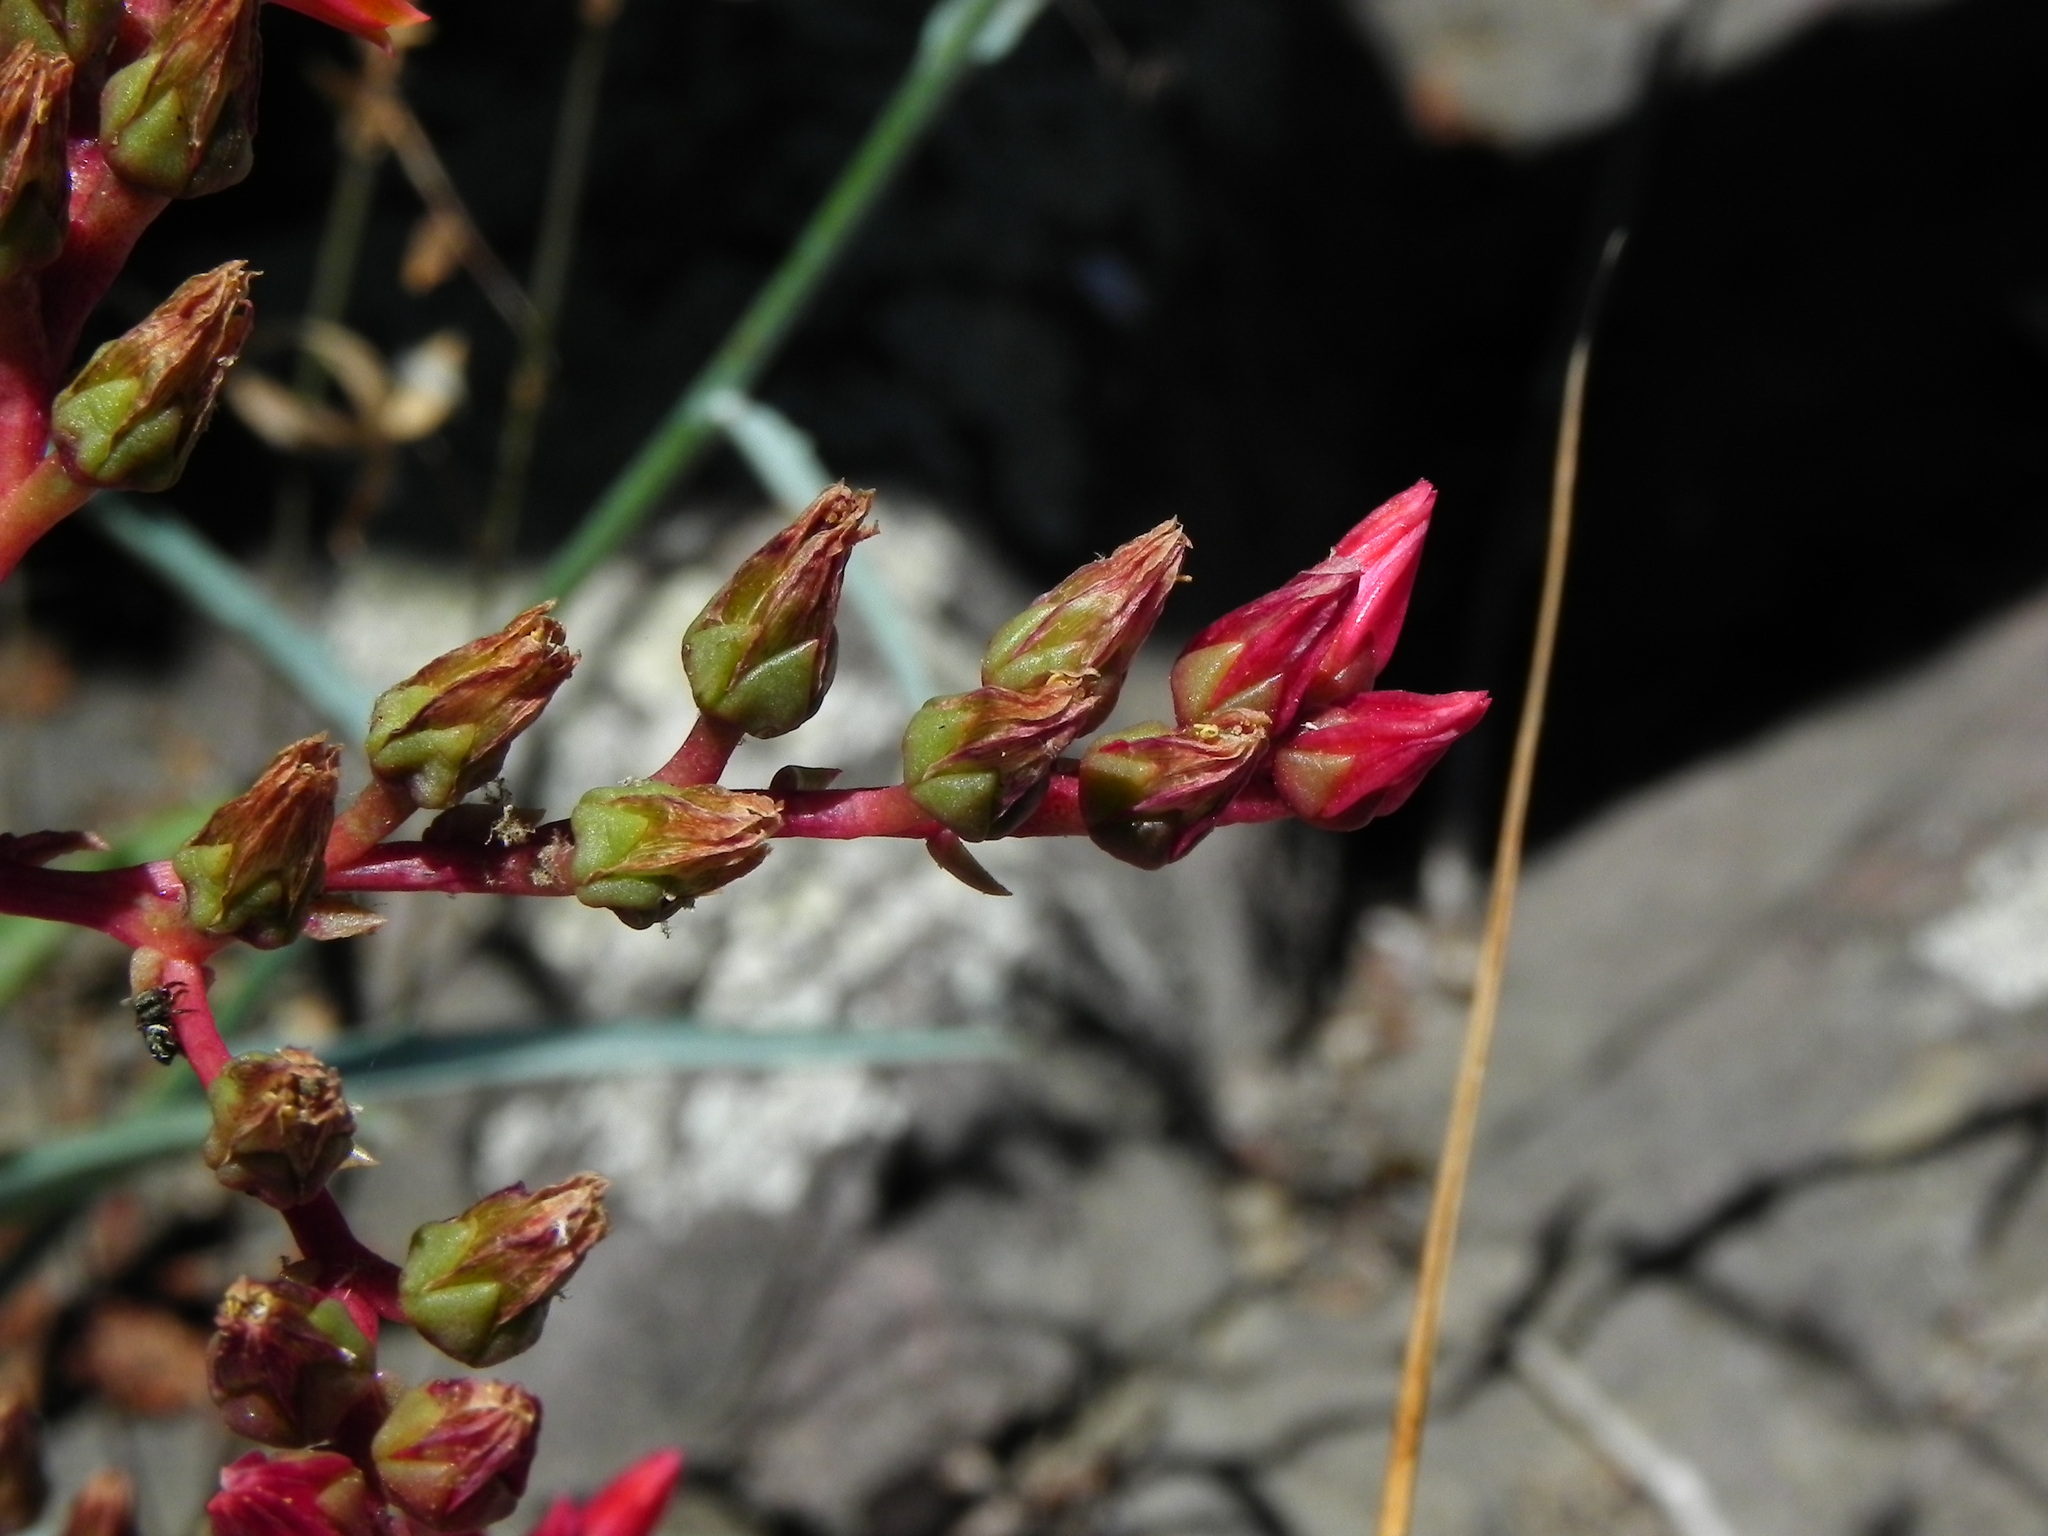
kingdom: Plantae
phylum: Tracheophyta
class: Magnoliopsida
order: Saxifragales
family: Crassulaceae
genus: Dudleya
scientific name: Dudleya lanceolata
